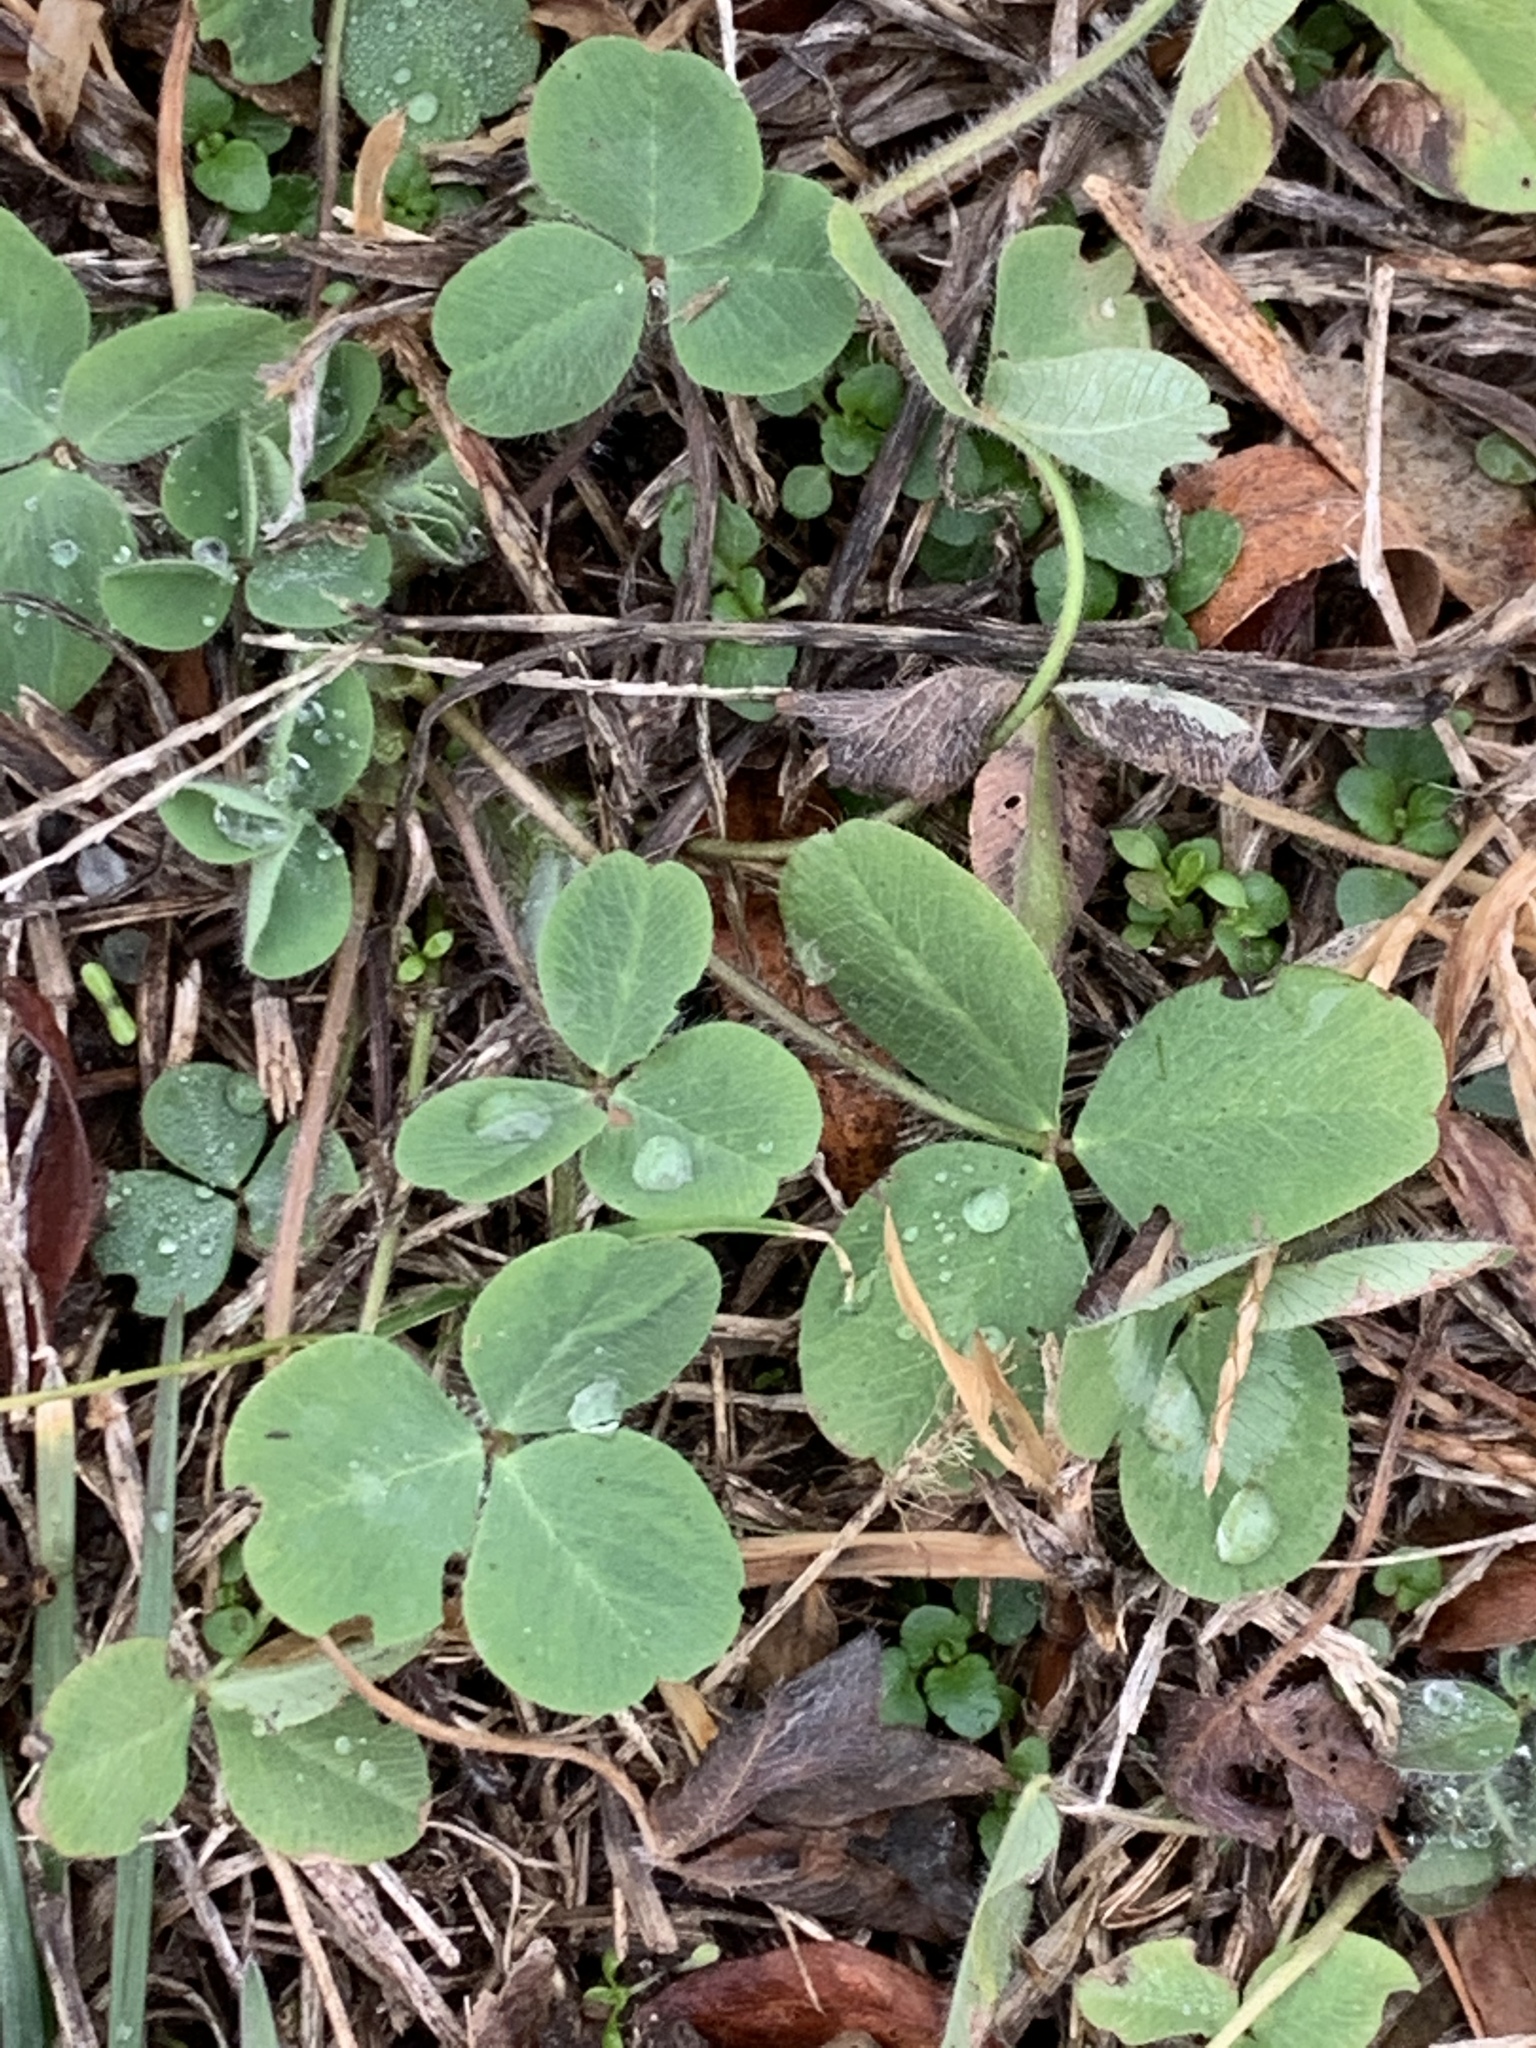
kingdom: Plantae
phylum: Tracheophyta
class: Magnoliopsida
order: Fabales
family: Fabaceae
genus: Trifolium
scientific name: Trifolium pratense
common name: Red clover
